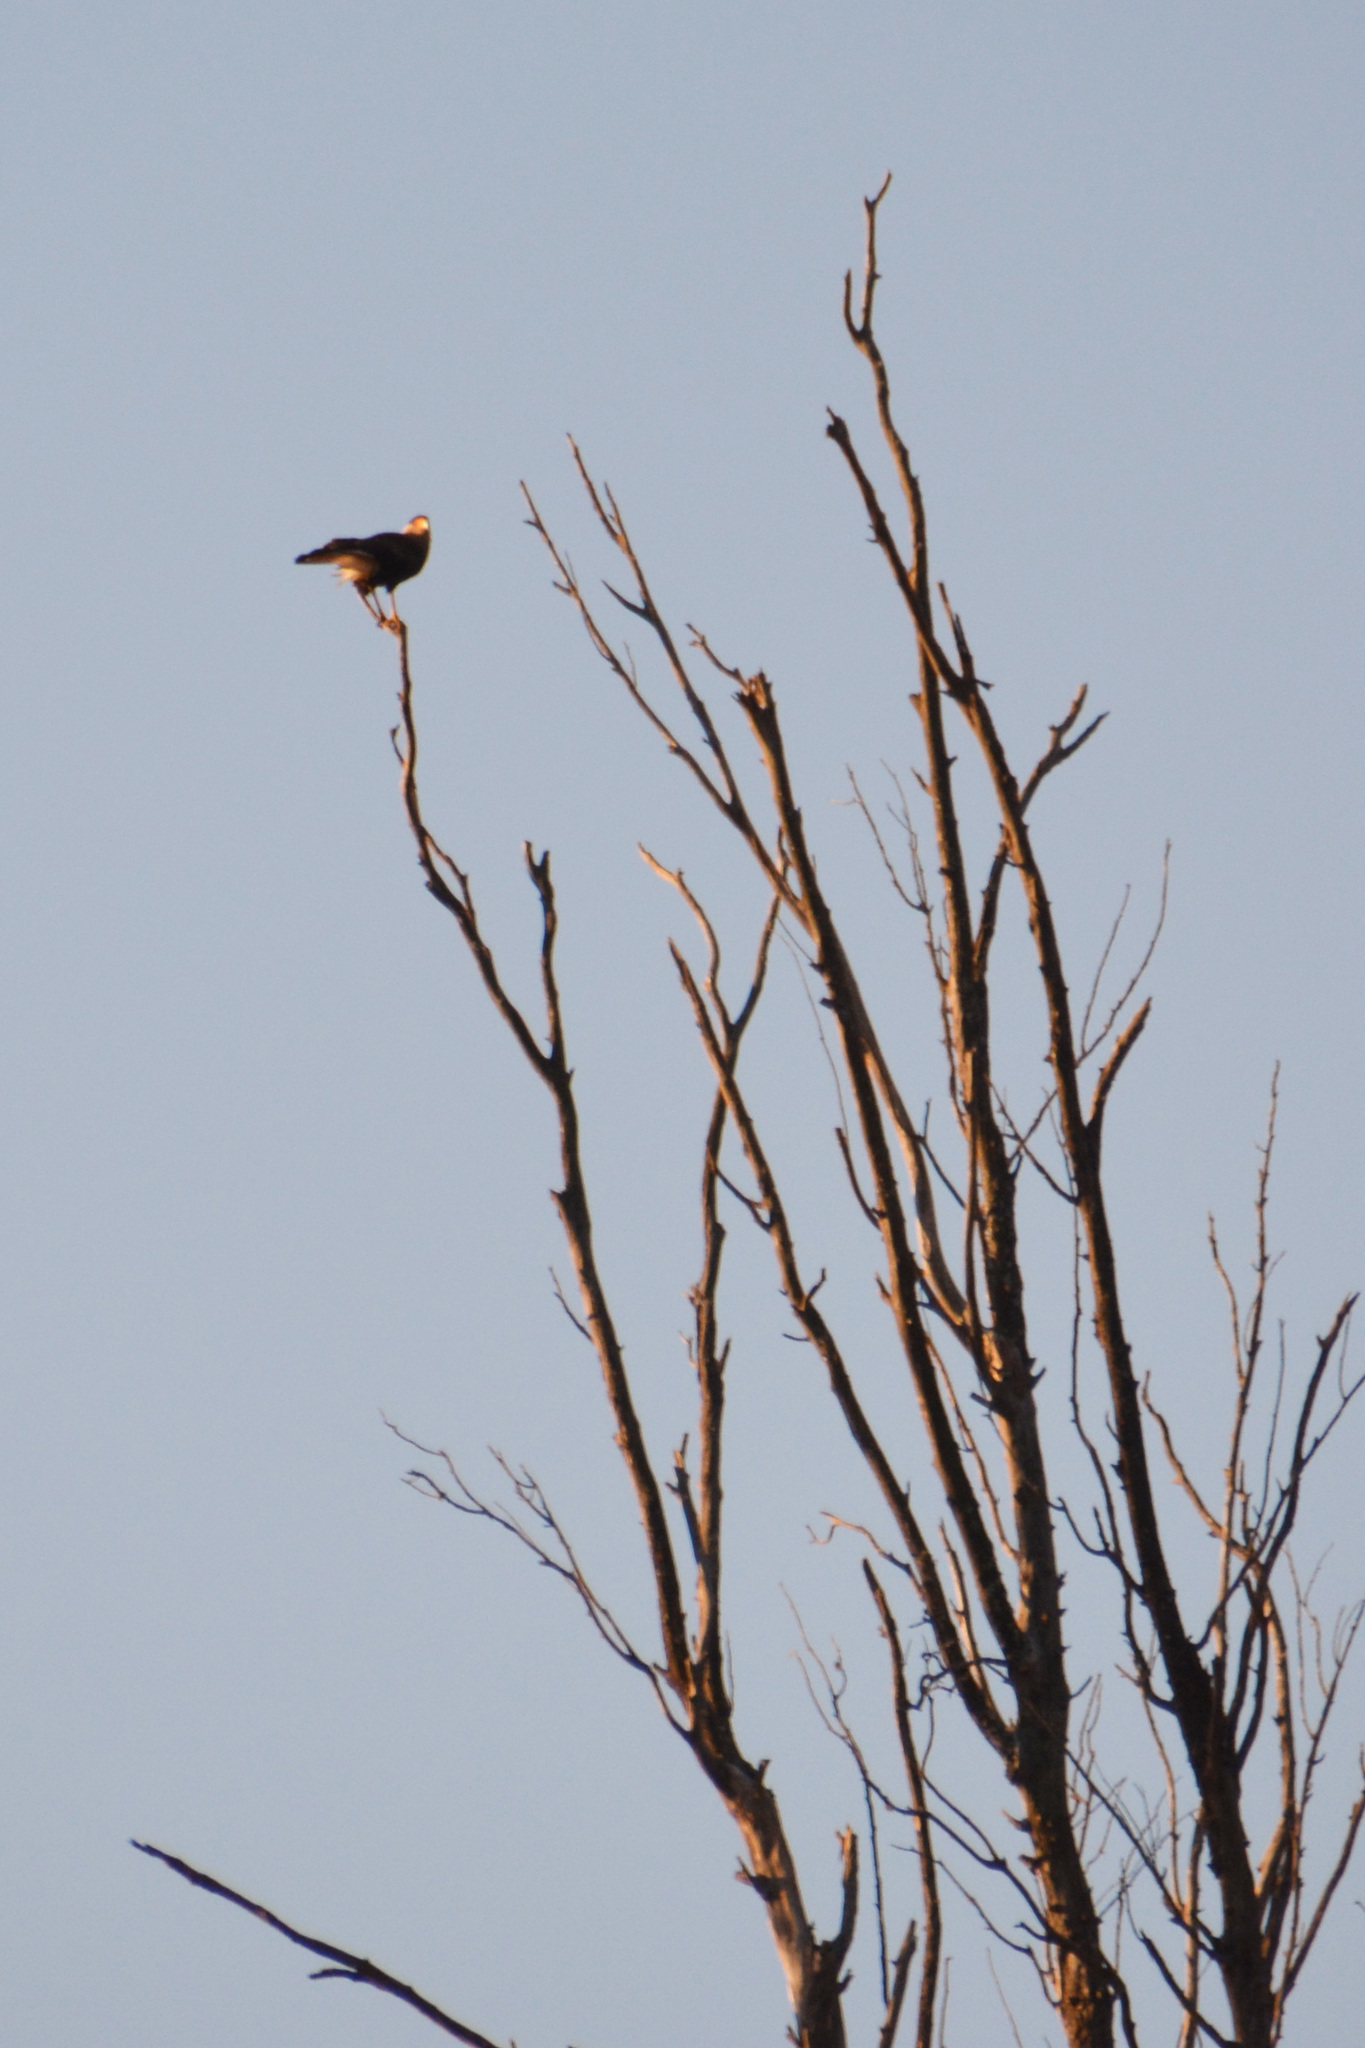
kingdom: Animalia
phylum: Chordata
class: Aves
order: Falconiformes
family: Falconidae
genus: Caracara
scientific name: Caracara plancus
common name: Southern caracara
